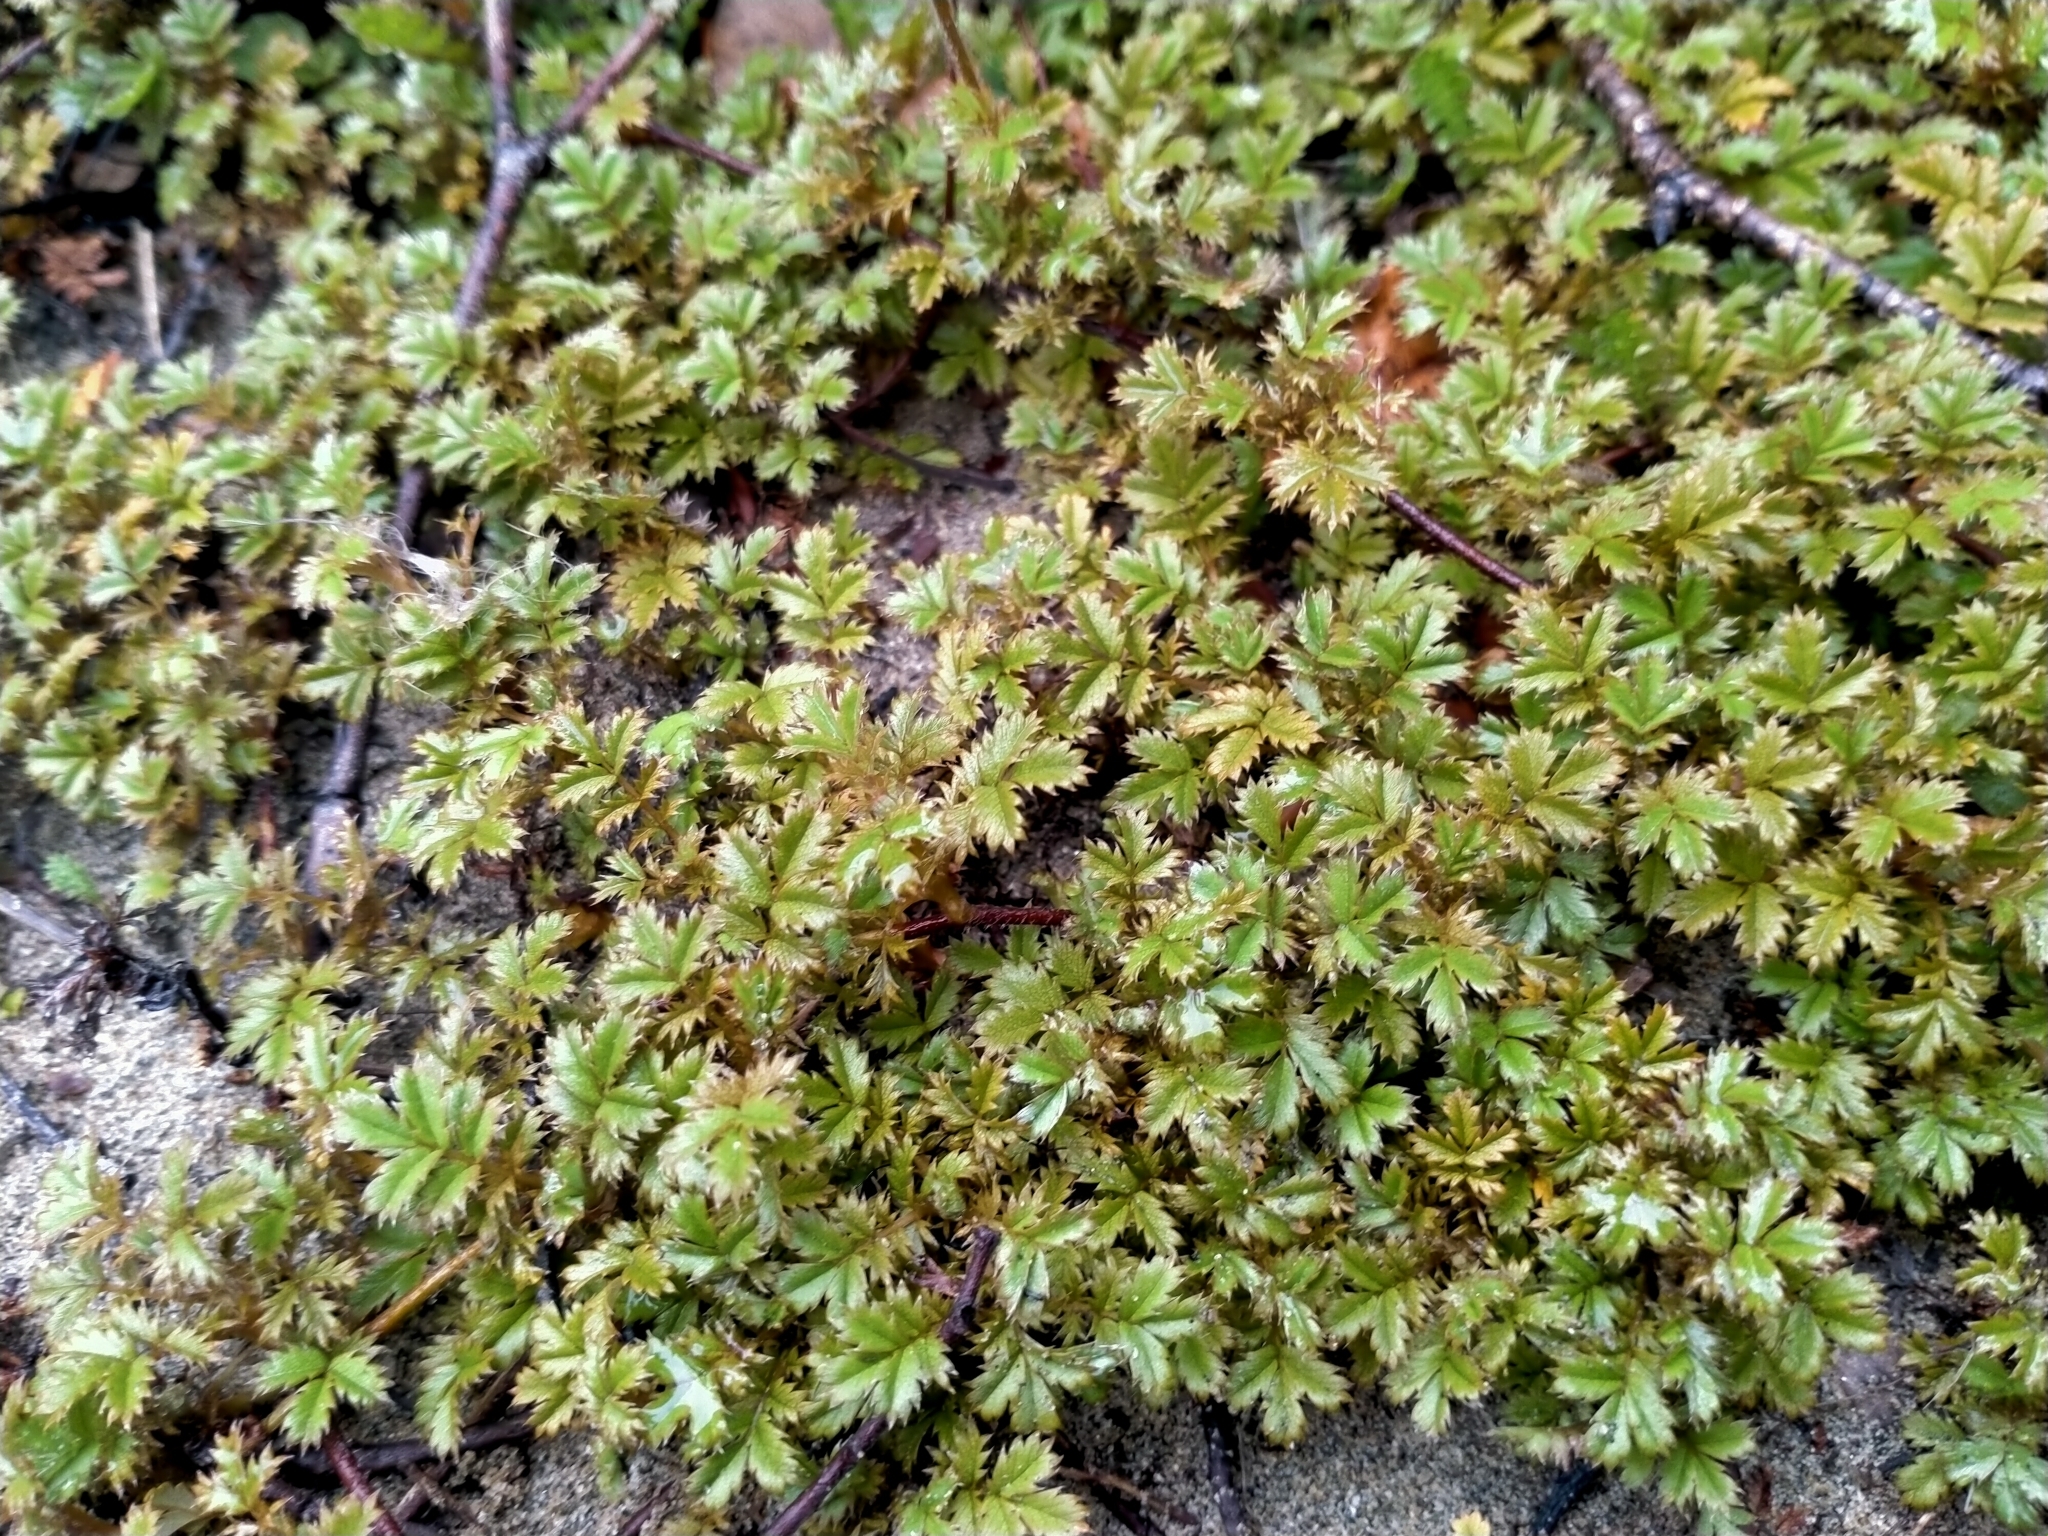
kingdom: Plantae
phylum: Tracheophyta
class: Magnoliopsida
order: Rosales
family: Rosaceae
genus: Acaena
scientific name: Acaena anserinifolia
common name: Bronze pirri-pirri-bur
